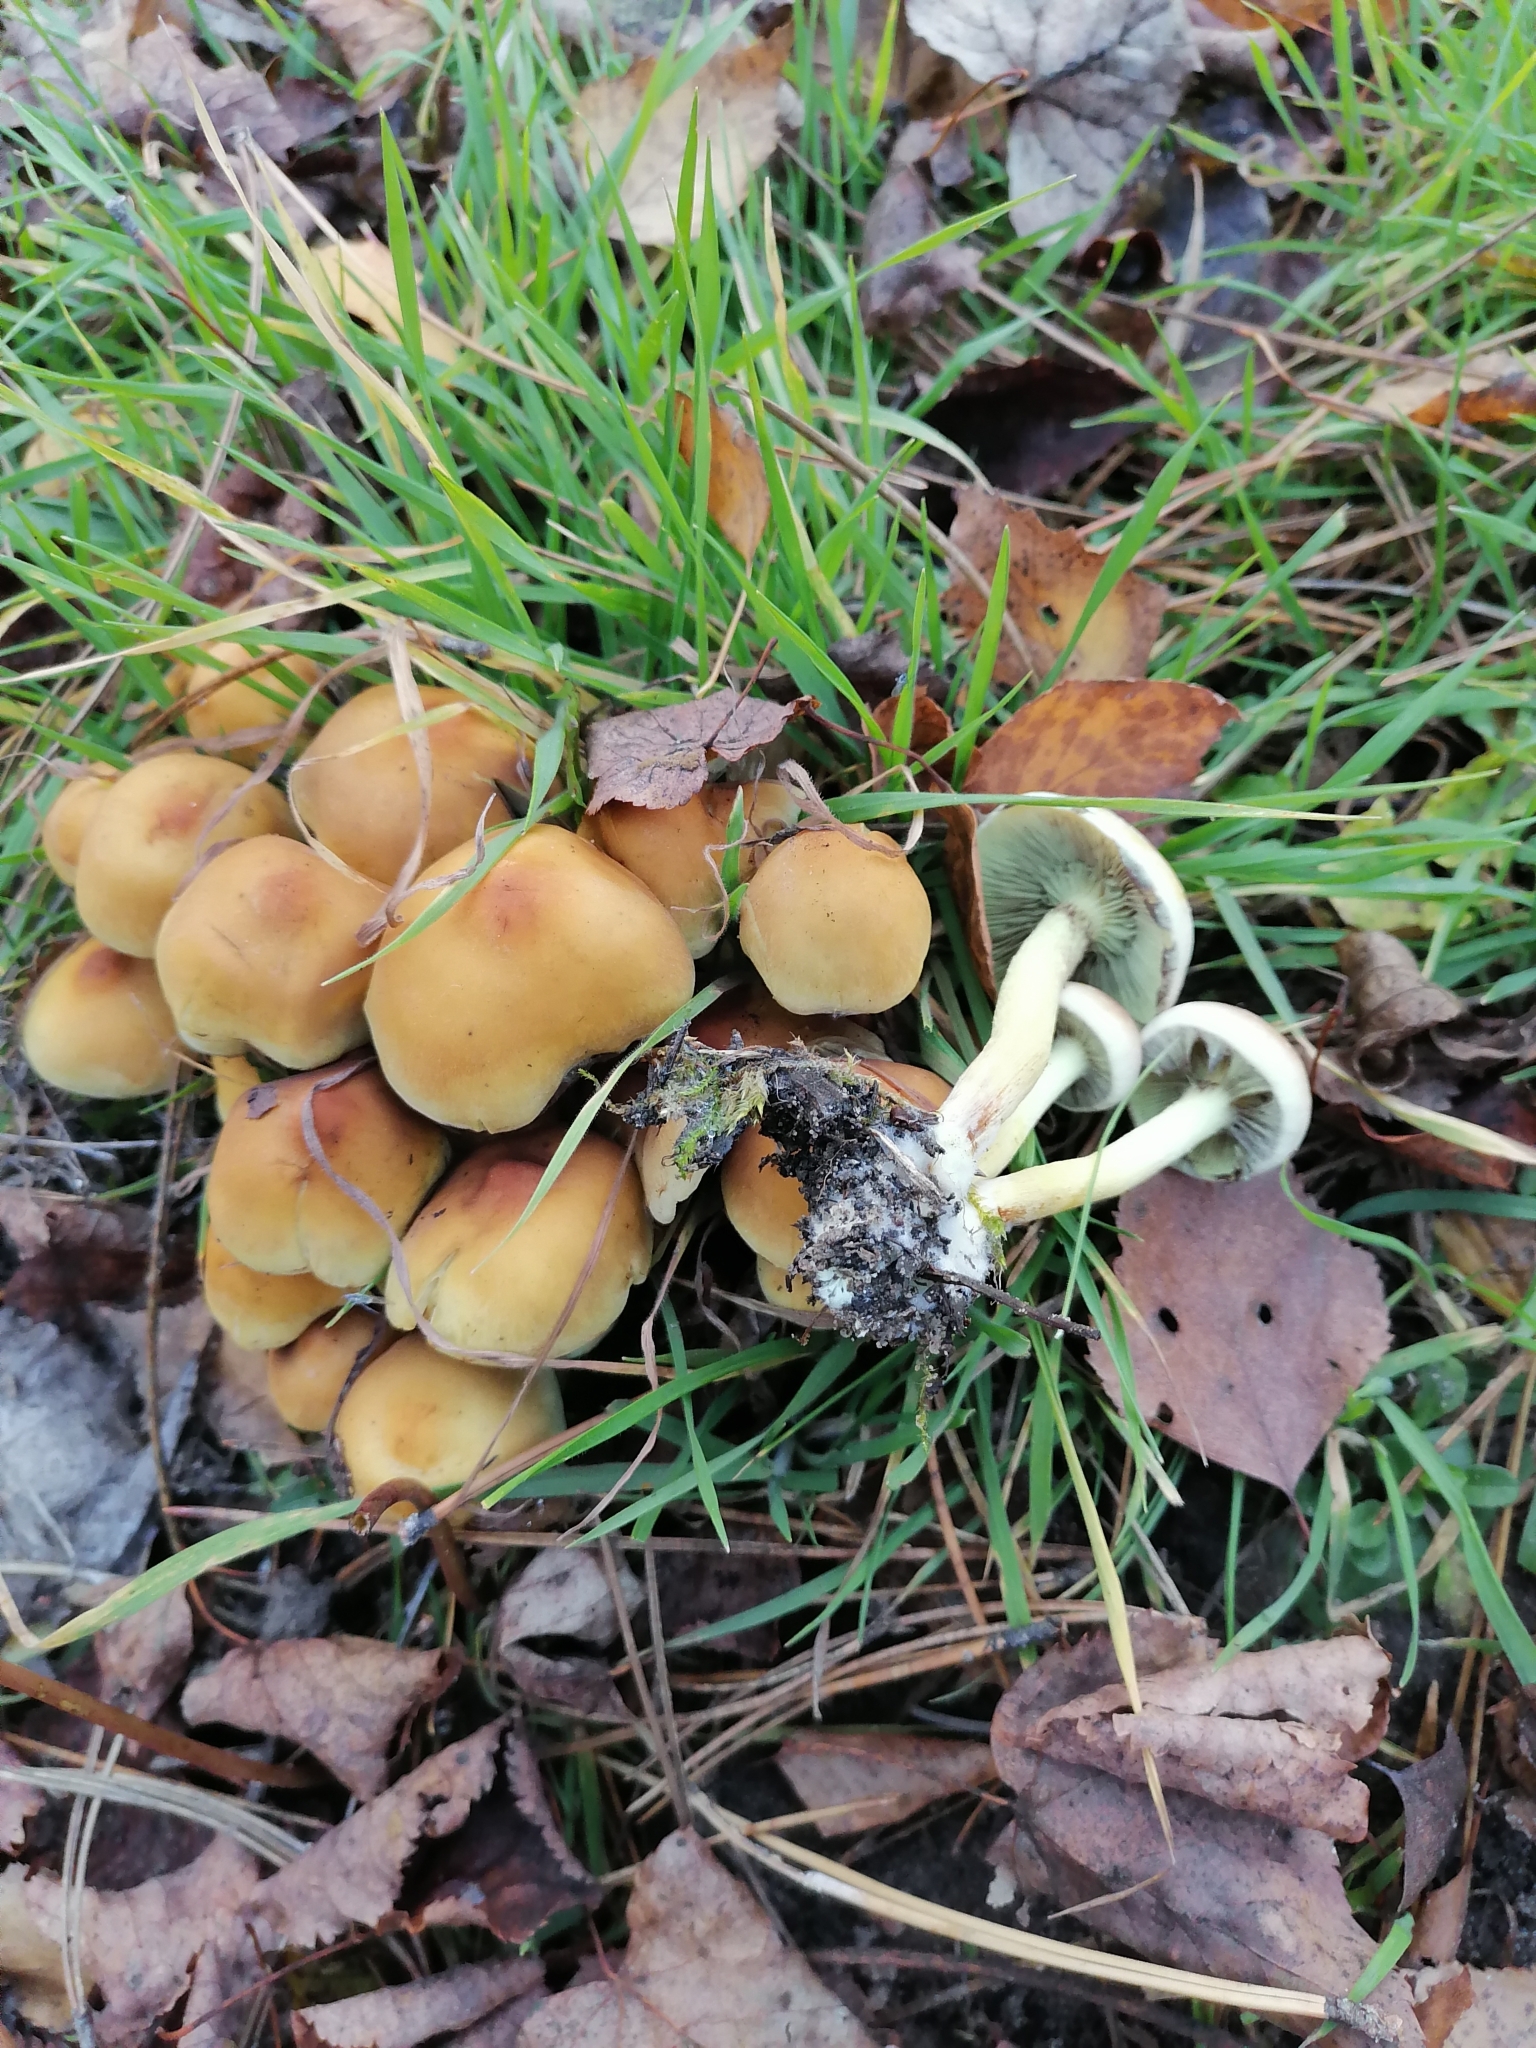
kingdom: Fungi
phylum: Basidiomycota
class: Agaricomycetes
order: Agaricales
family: Strophariaceae
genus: Hypholoma
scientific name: Hypholoma fasciculare
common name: Sulphur tuft
